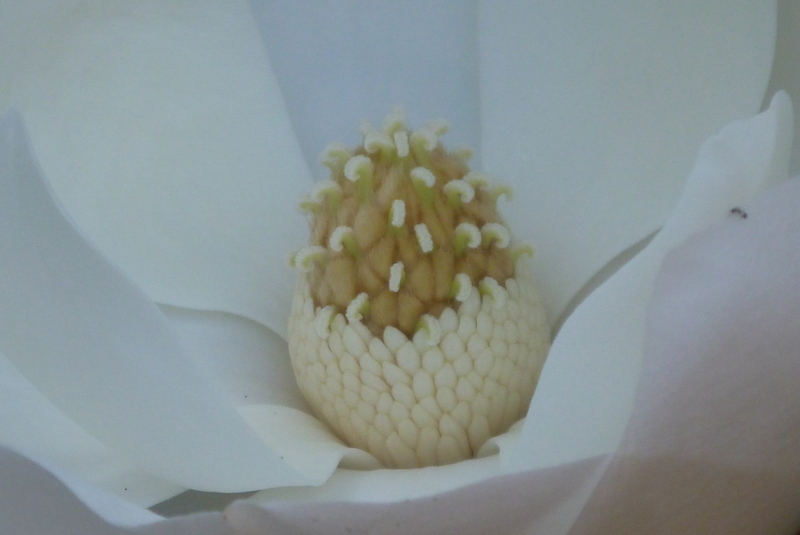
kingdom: Plantae
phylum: Tracheophyta
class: Magnoliopsida
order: Magnoliales
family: Magnoliaceae
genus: Magnolia
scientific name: Magnolia grandiflora
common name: Southern magnolia
